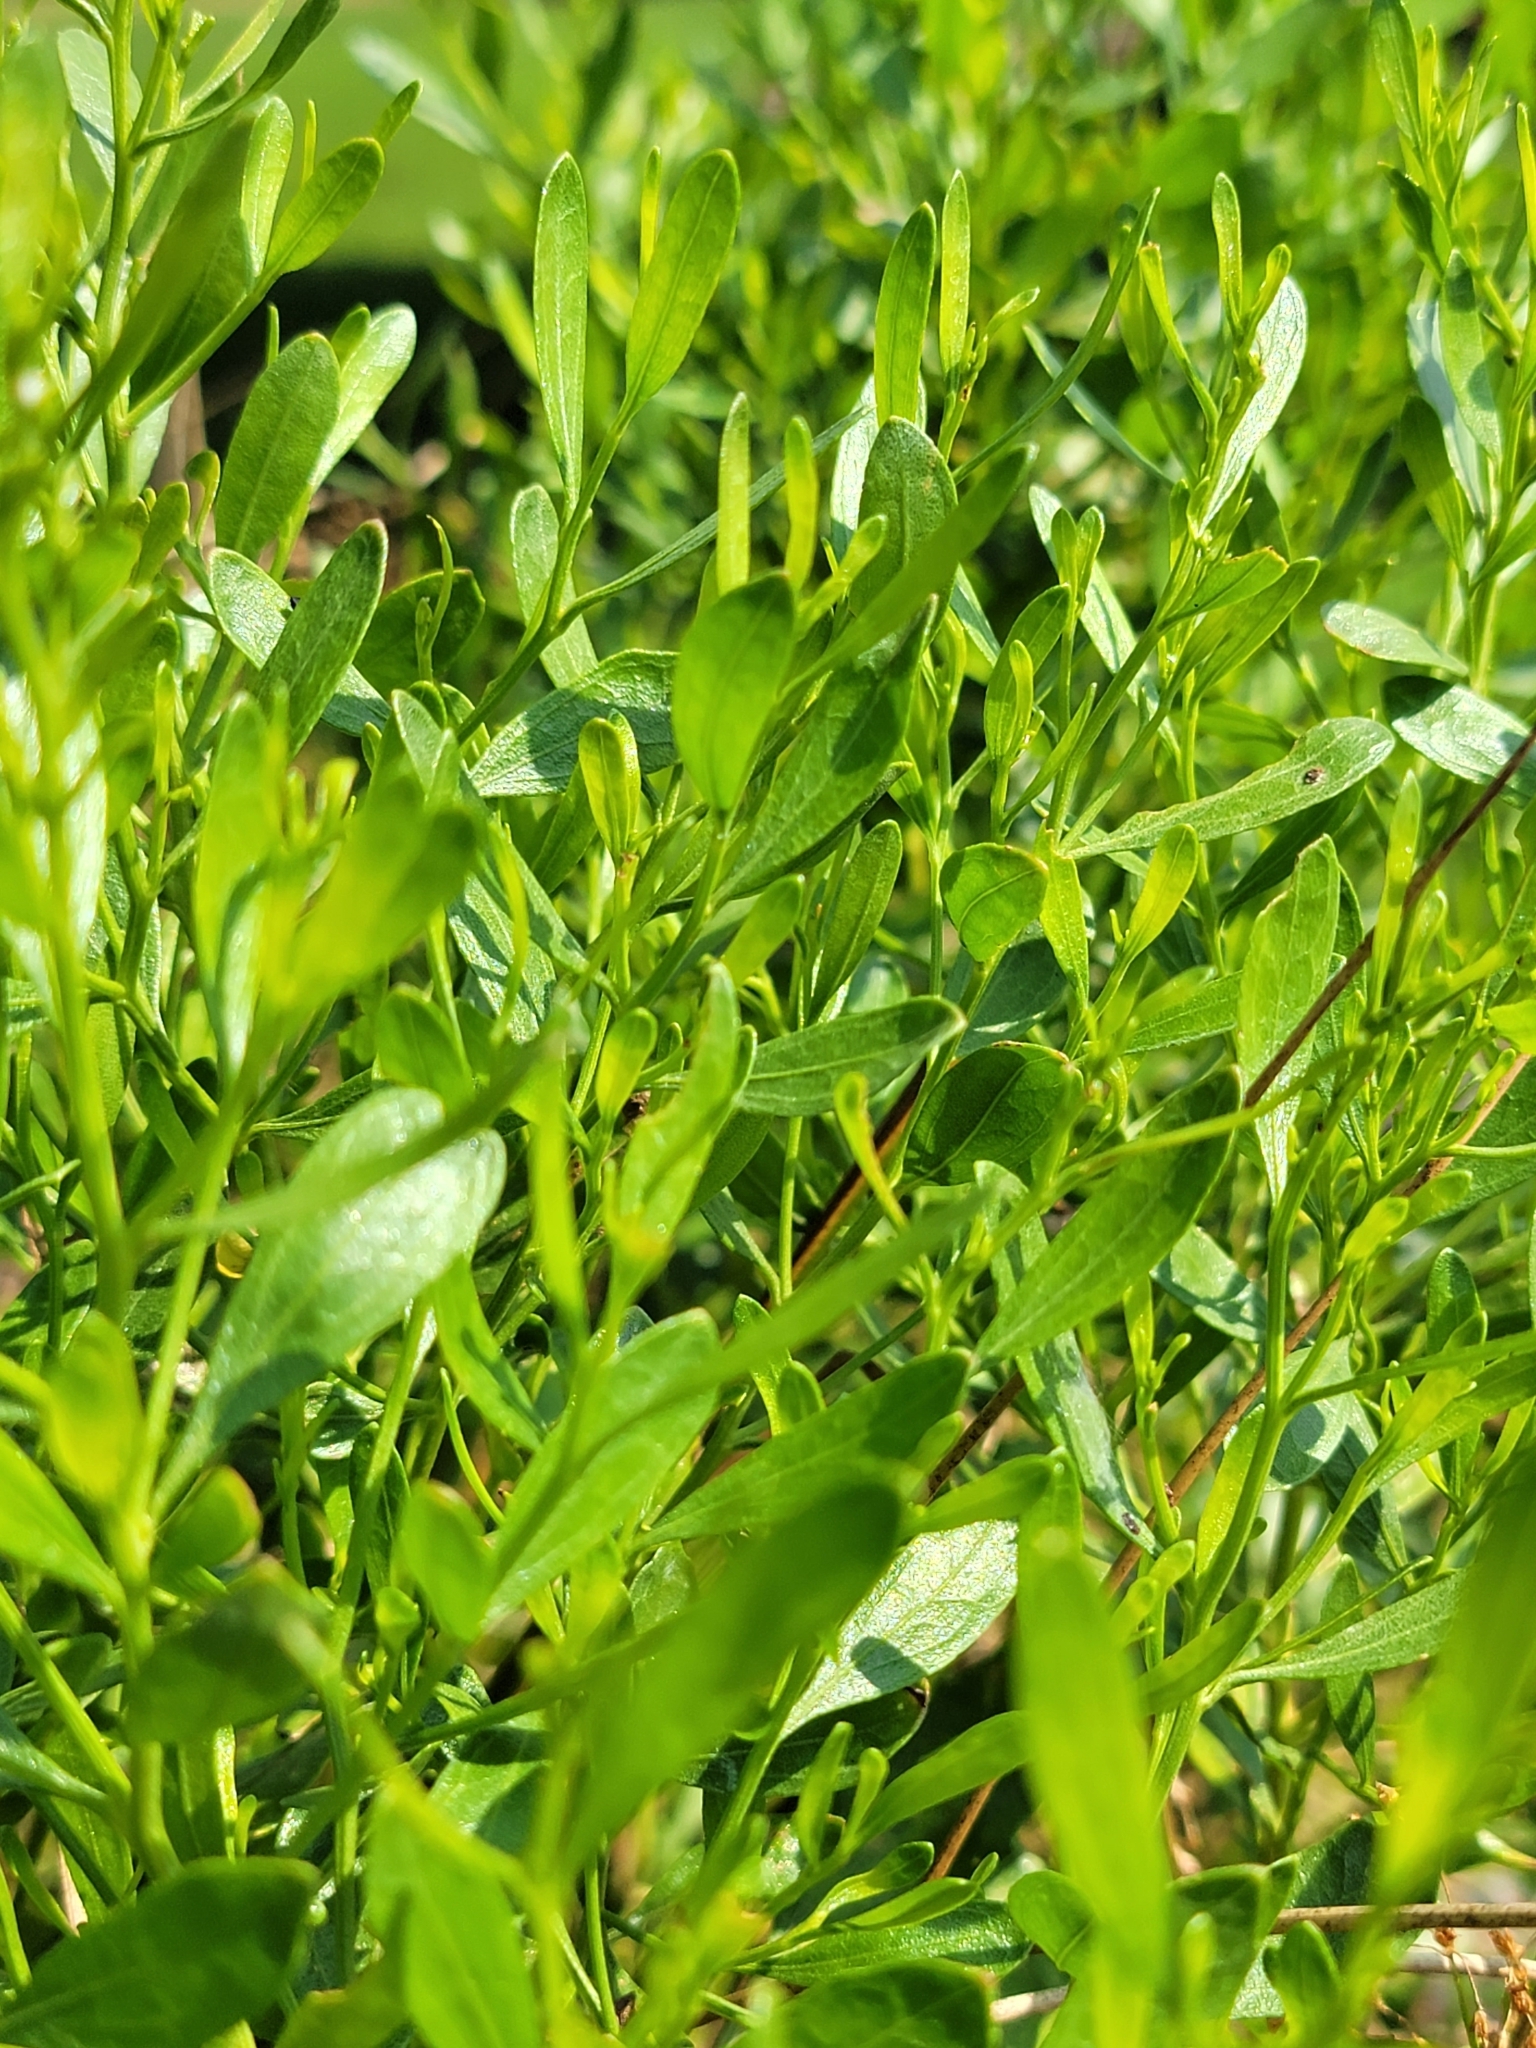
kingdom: Plantae
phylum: Tracheophyta
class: Magnoliopsida
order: Asterales
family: Asteraceae
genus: Baccharis
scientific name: Baccharis halimifolia
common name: Eastern baccharis
